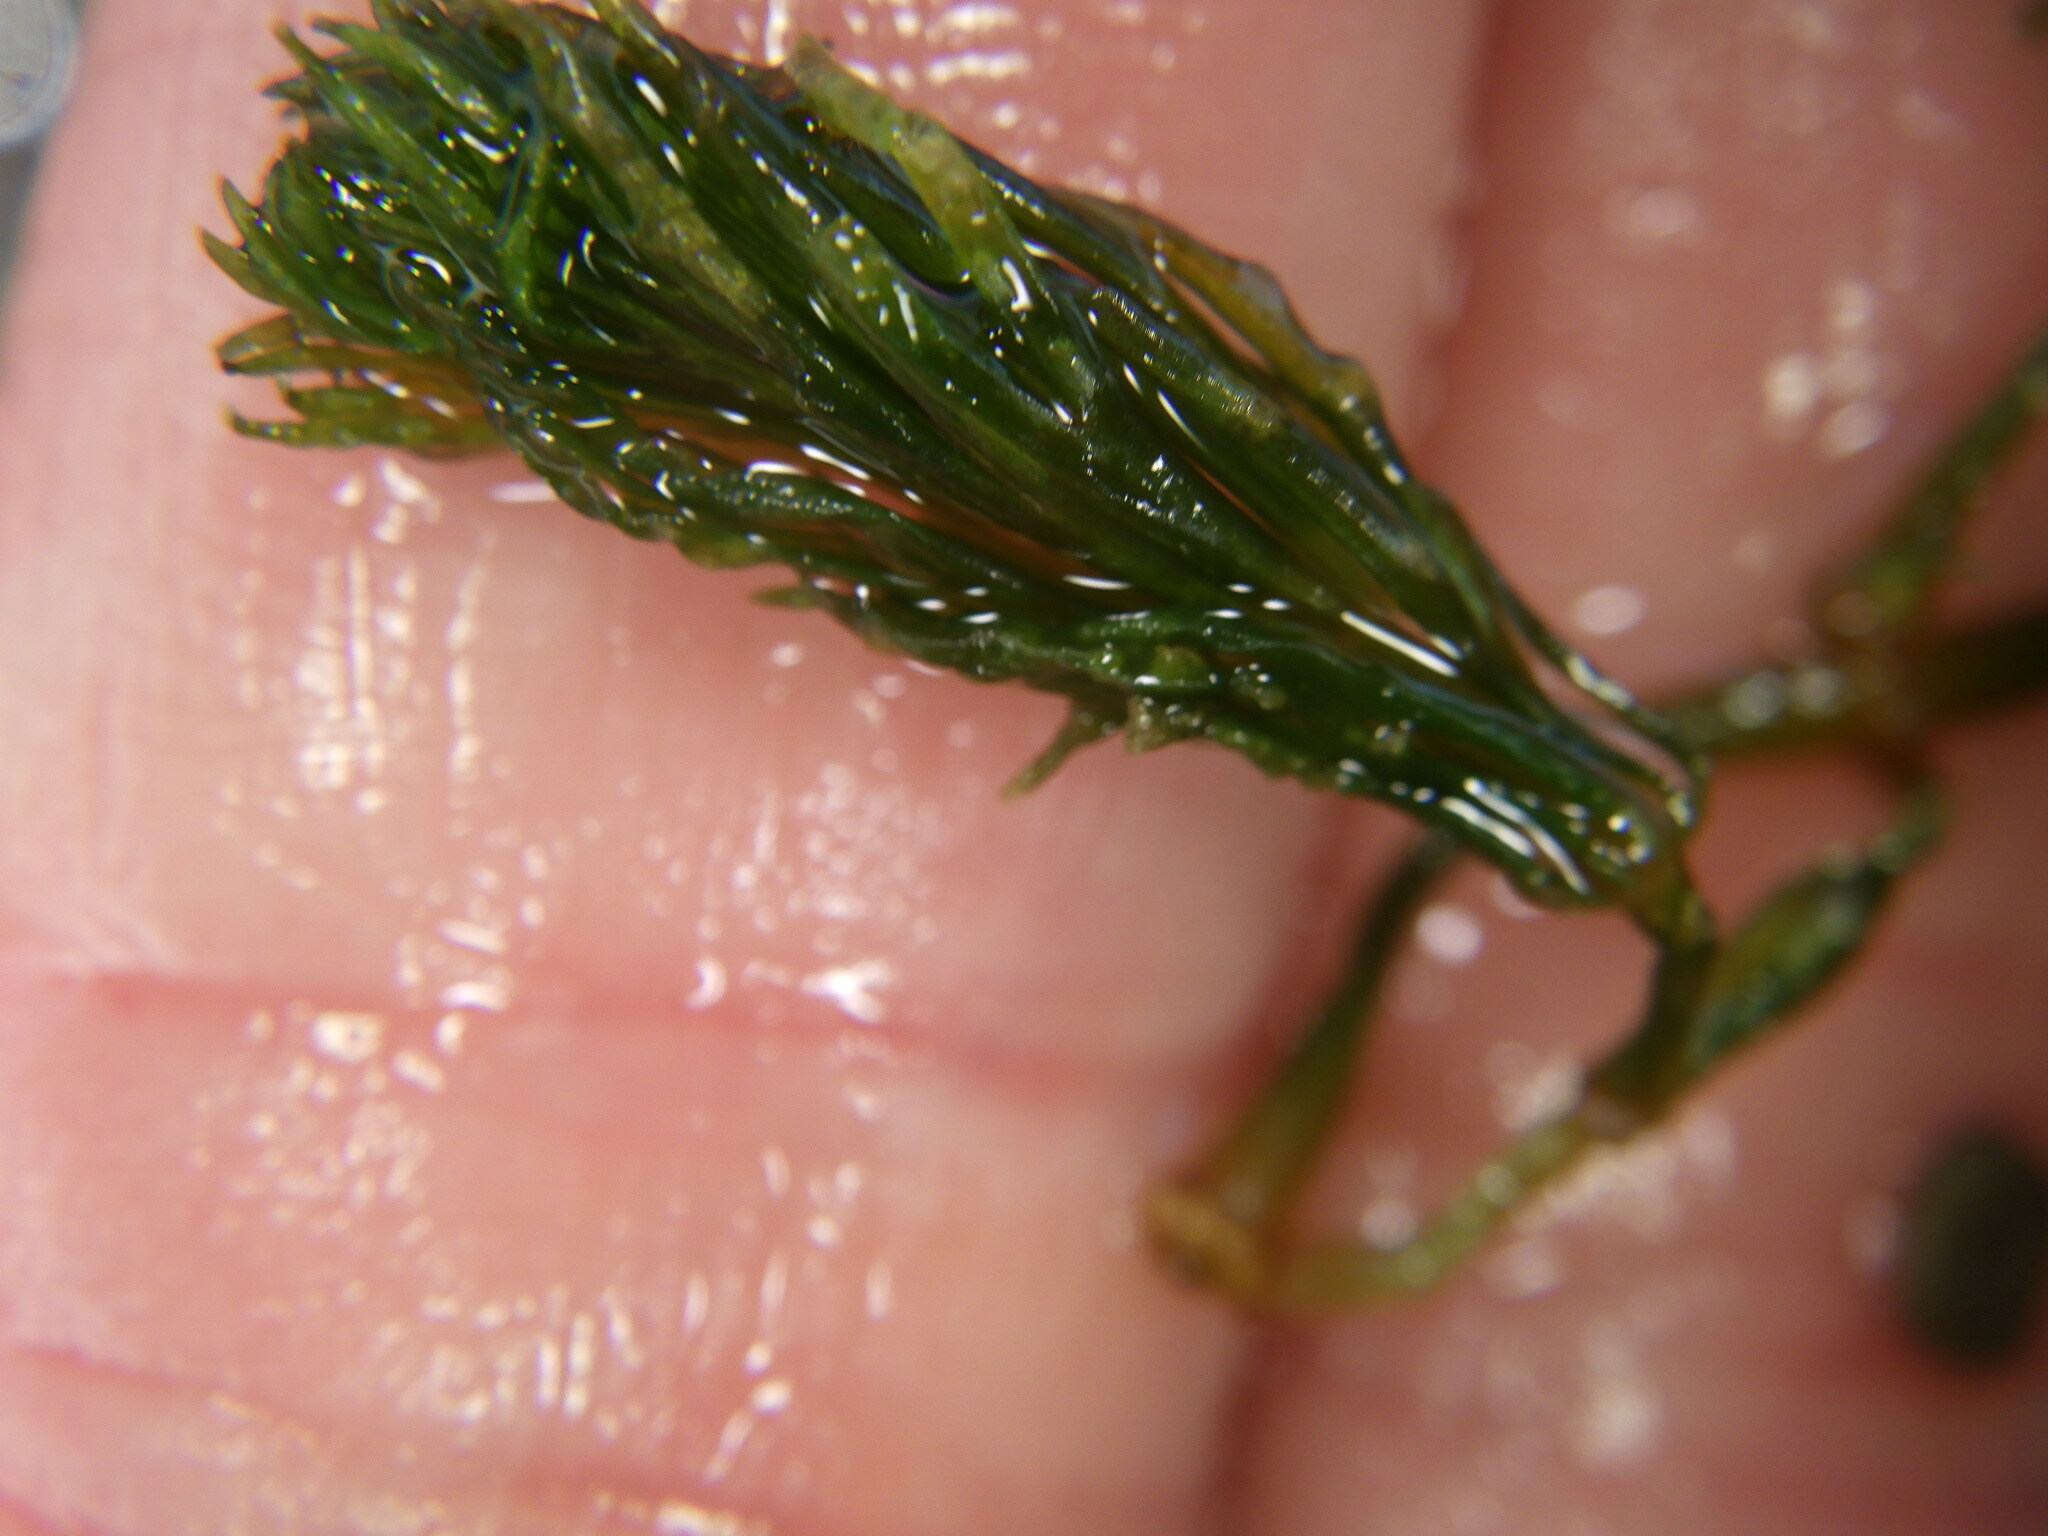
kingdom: Plantae
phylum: Tracheophyta
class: Magnoliopsida
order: Ceratophyllales
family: Ceratophyllaceae
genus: Ceratophyllum
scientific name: Ceratophyllum demersum
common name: Rigid hornwort
